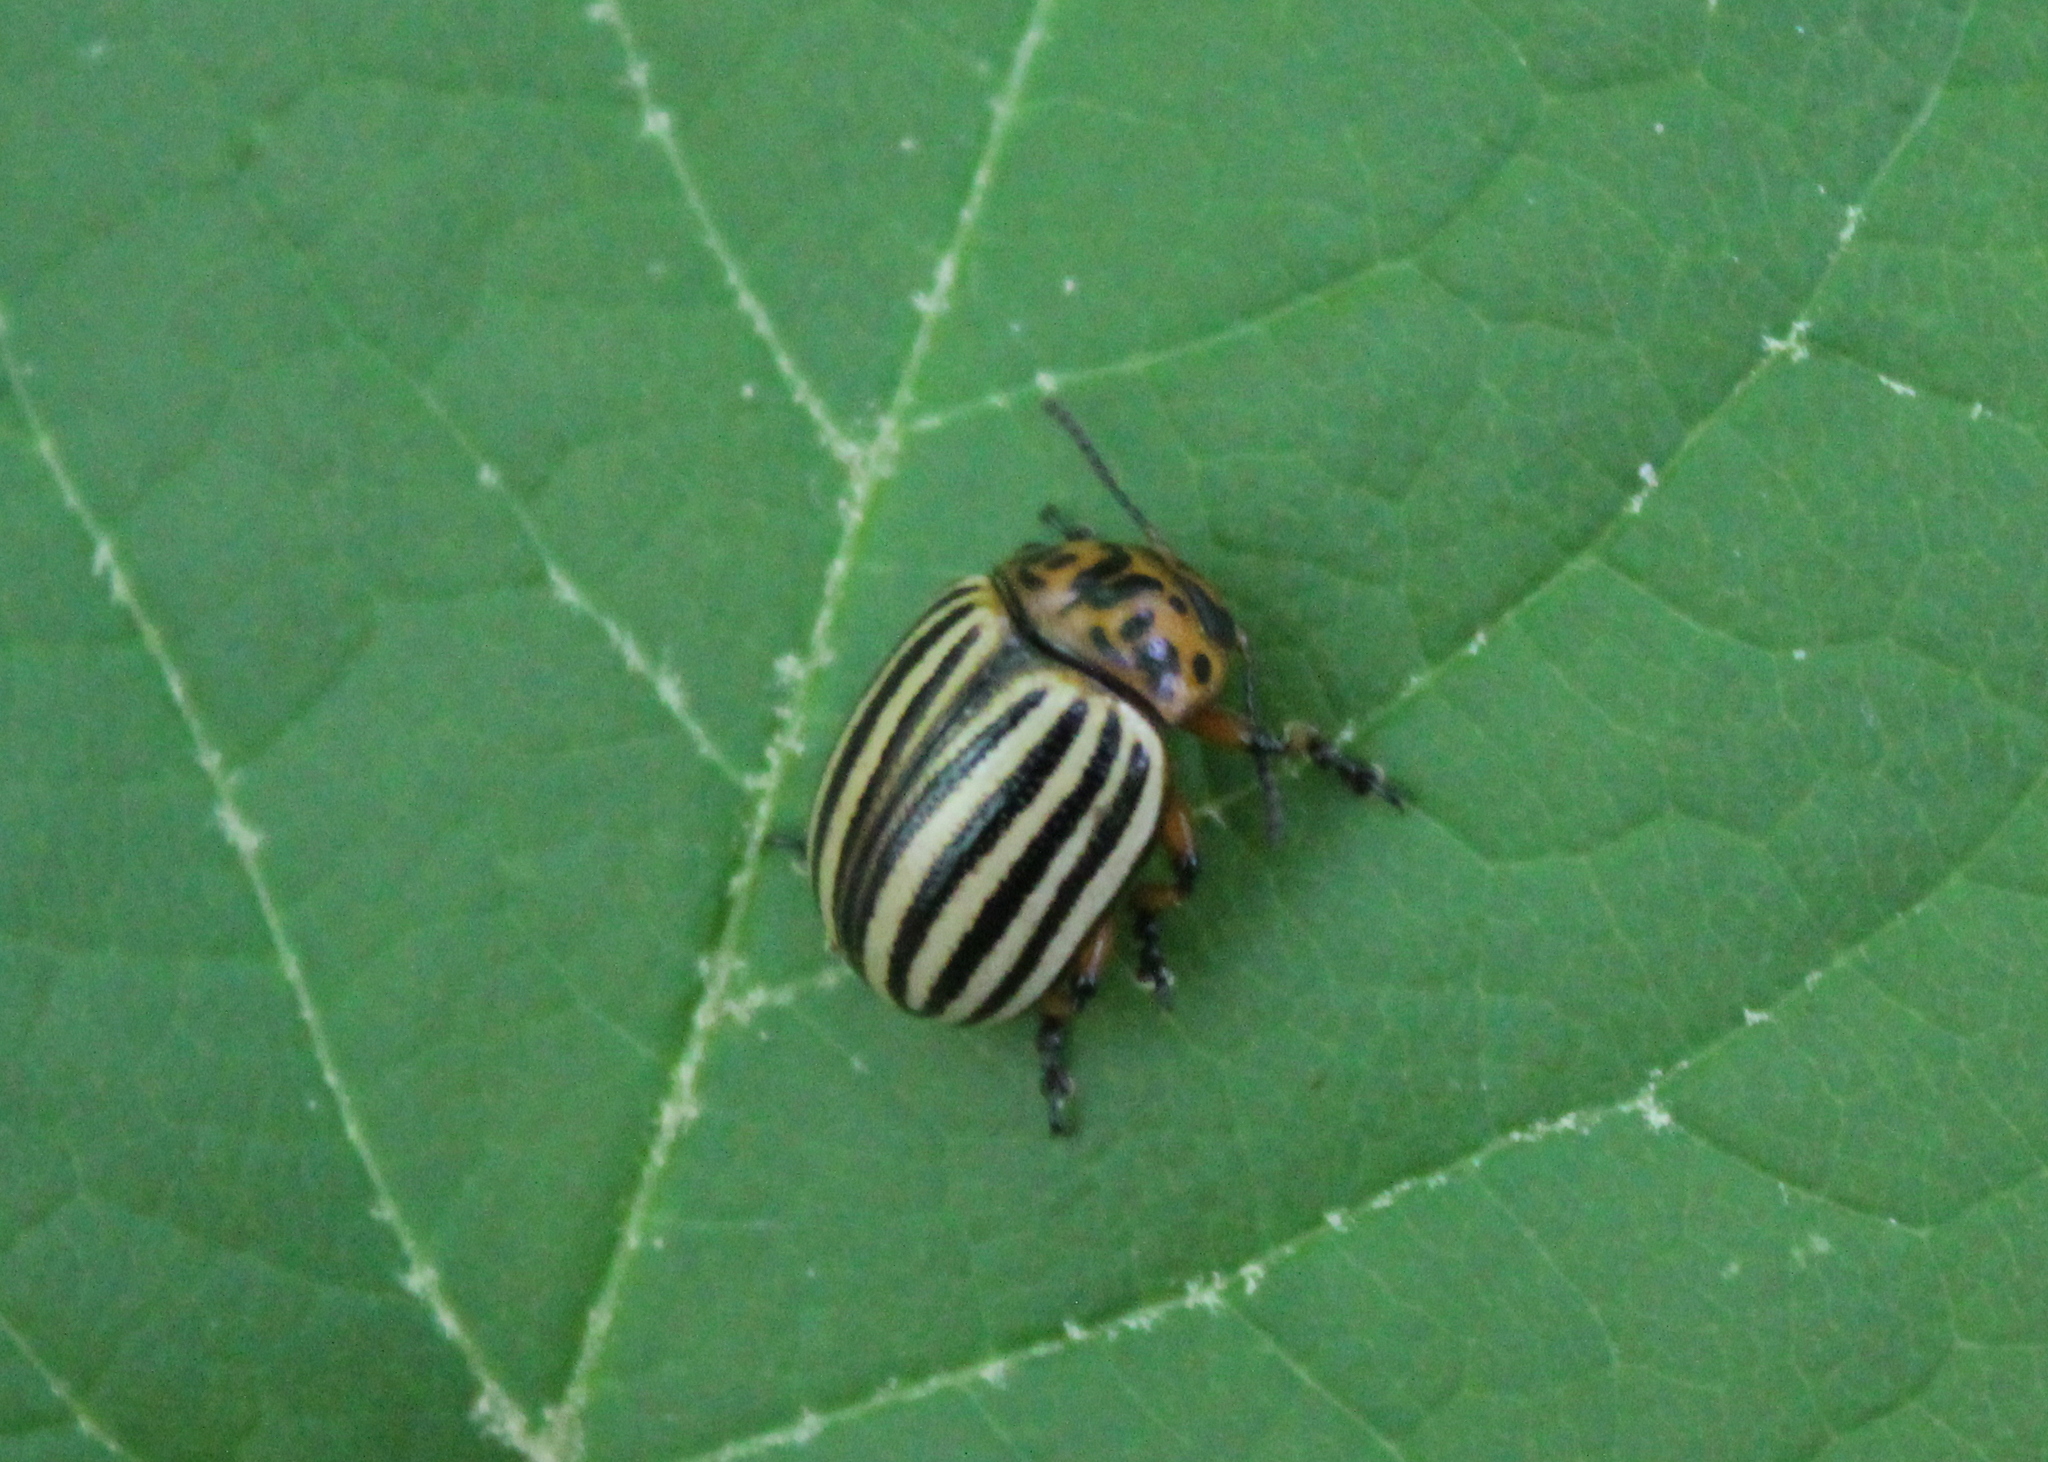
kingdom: Animalia
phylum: Arthropoda
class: Insecta
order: Coleoptera
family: Chrysomelidae
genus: Leptinotarsa
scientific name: Leptinotarsa decemlineata
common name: Colorado potato beetle
